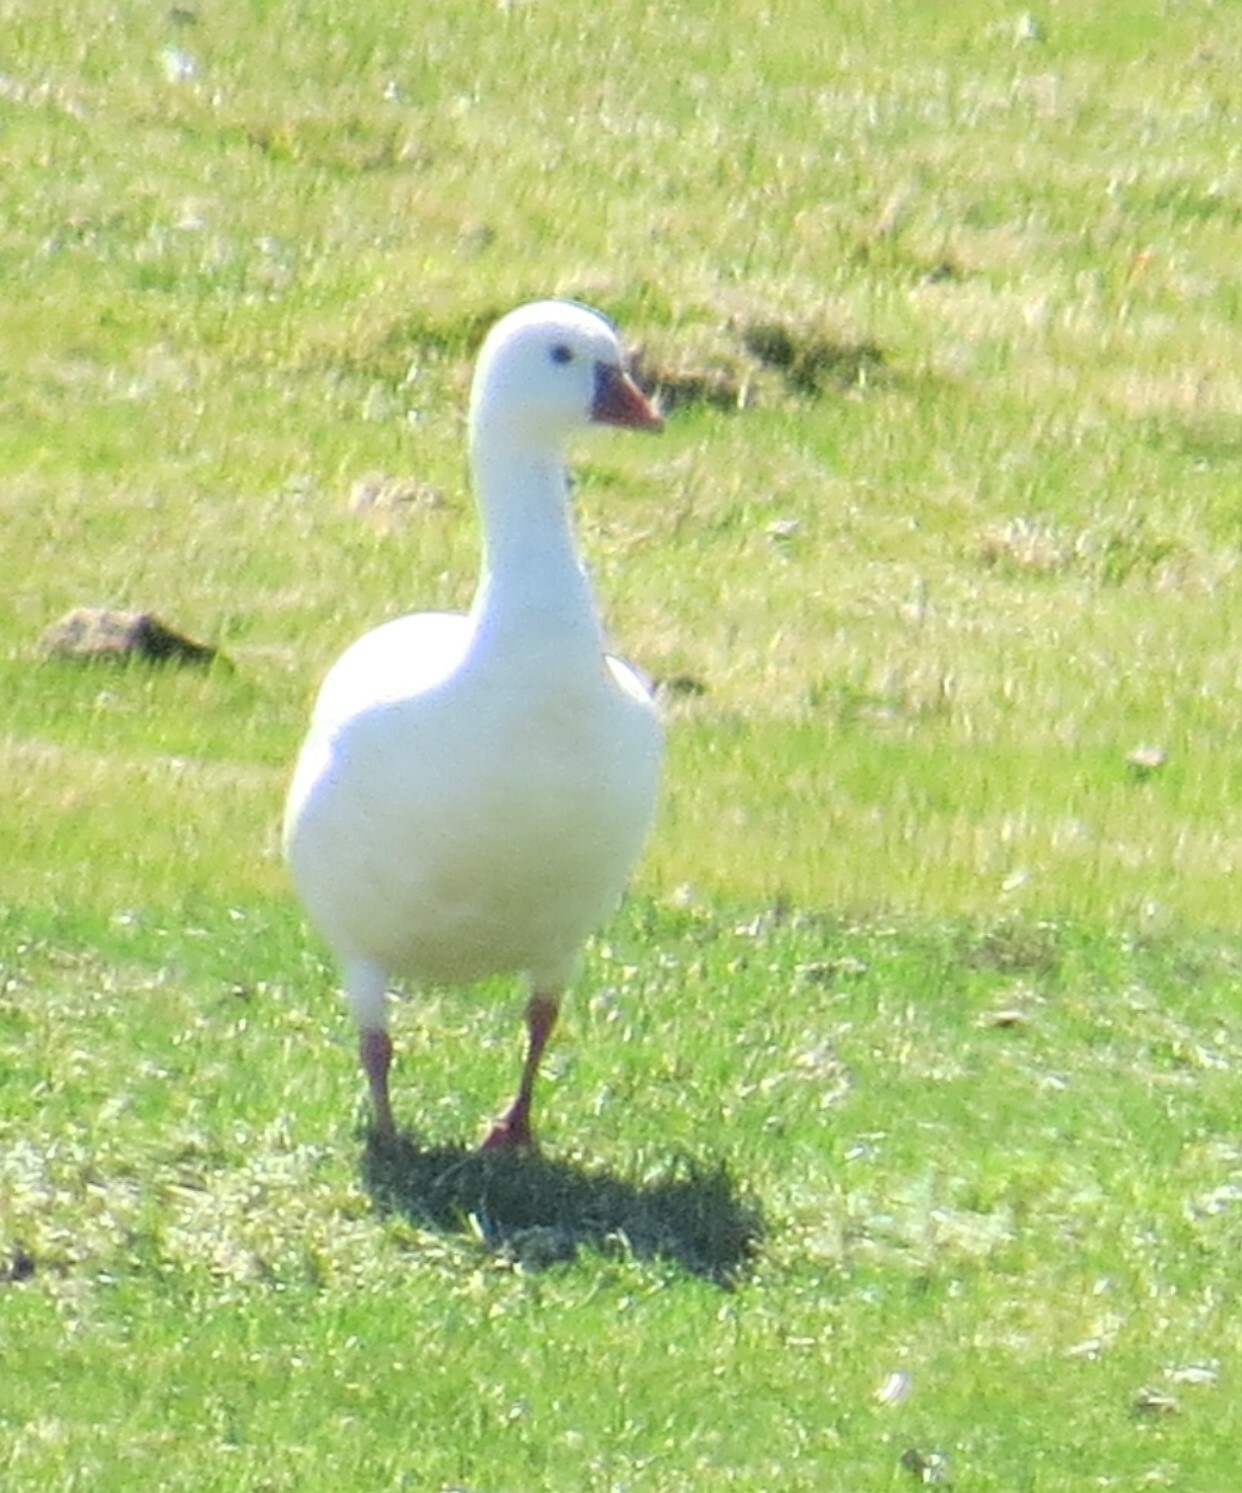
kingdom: Animalia
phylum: Chordata
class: Aves
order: Anseriformes
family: Anatidae
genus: Anser
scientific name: Anser rossii
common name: Ross's goose
